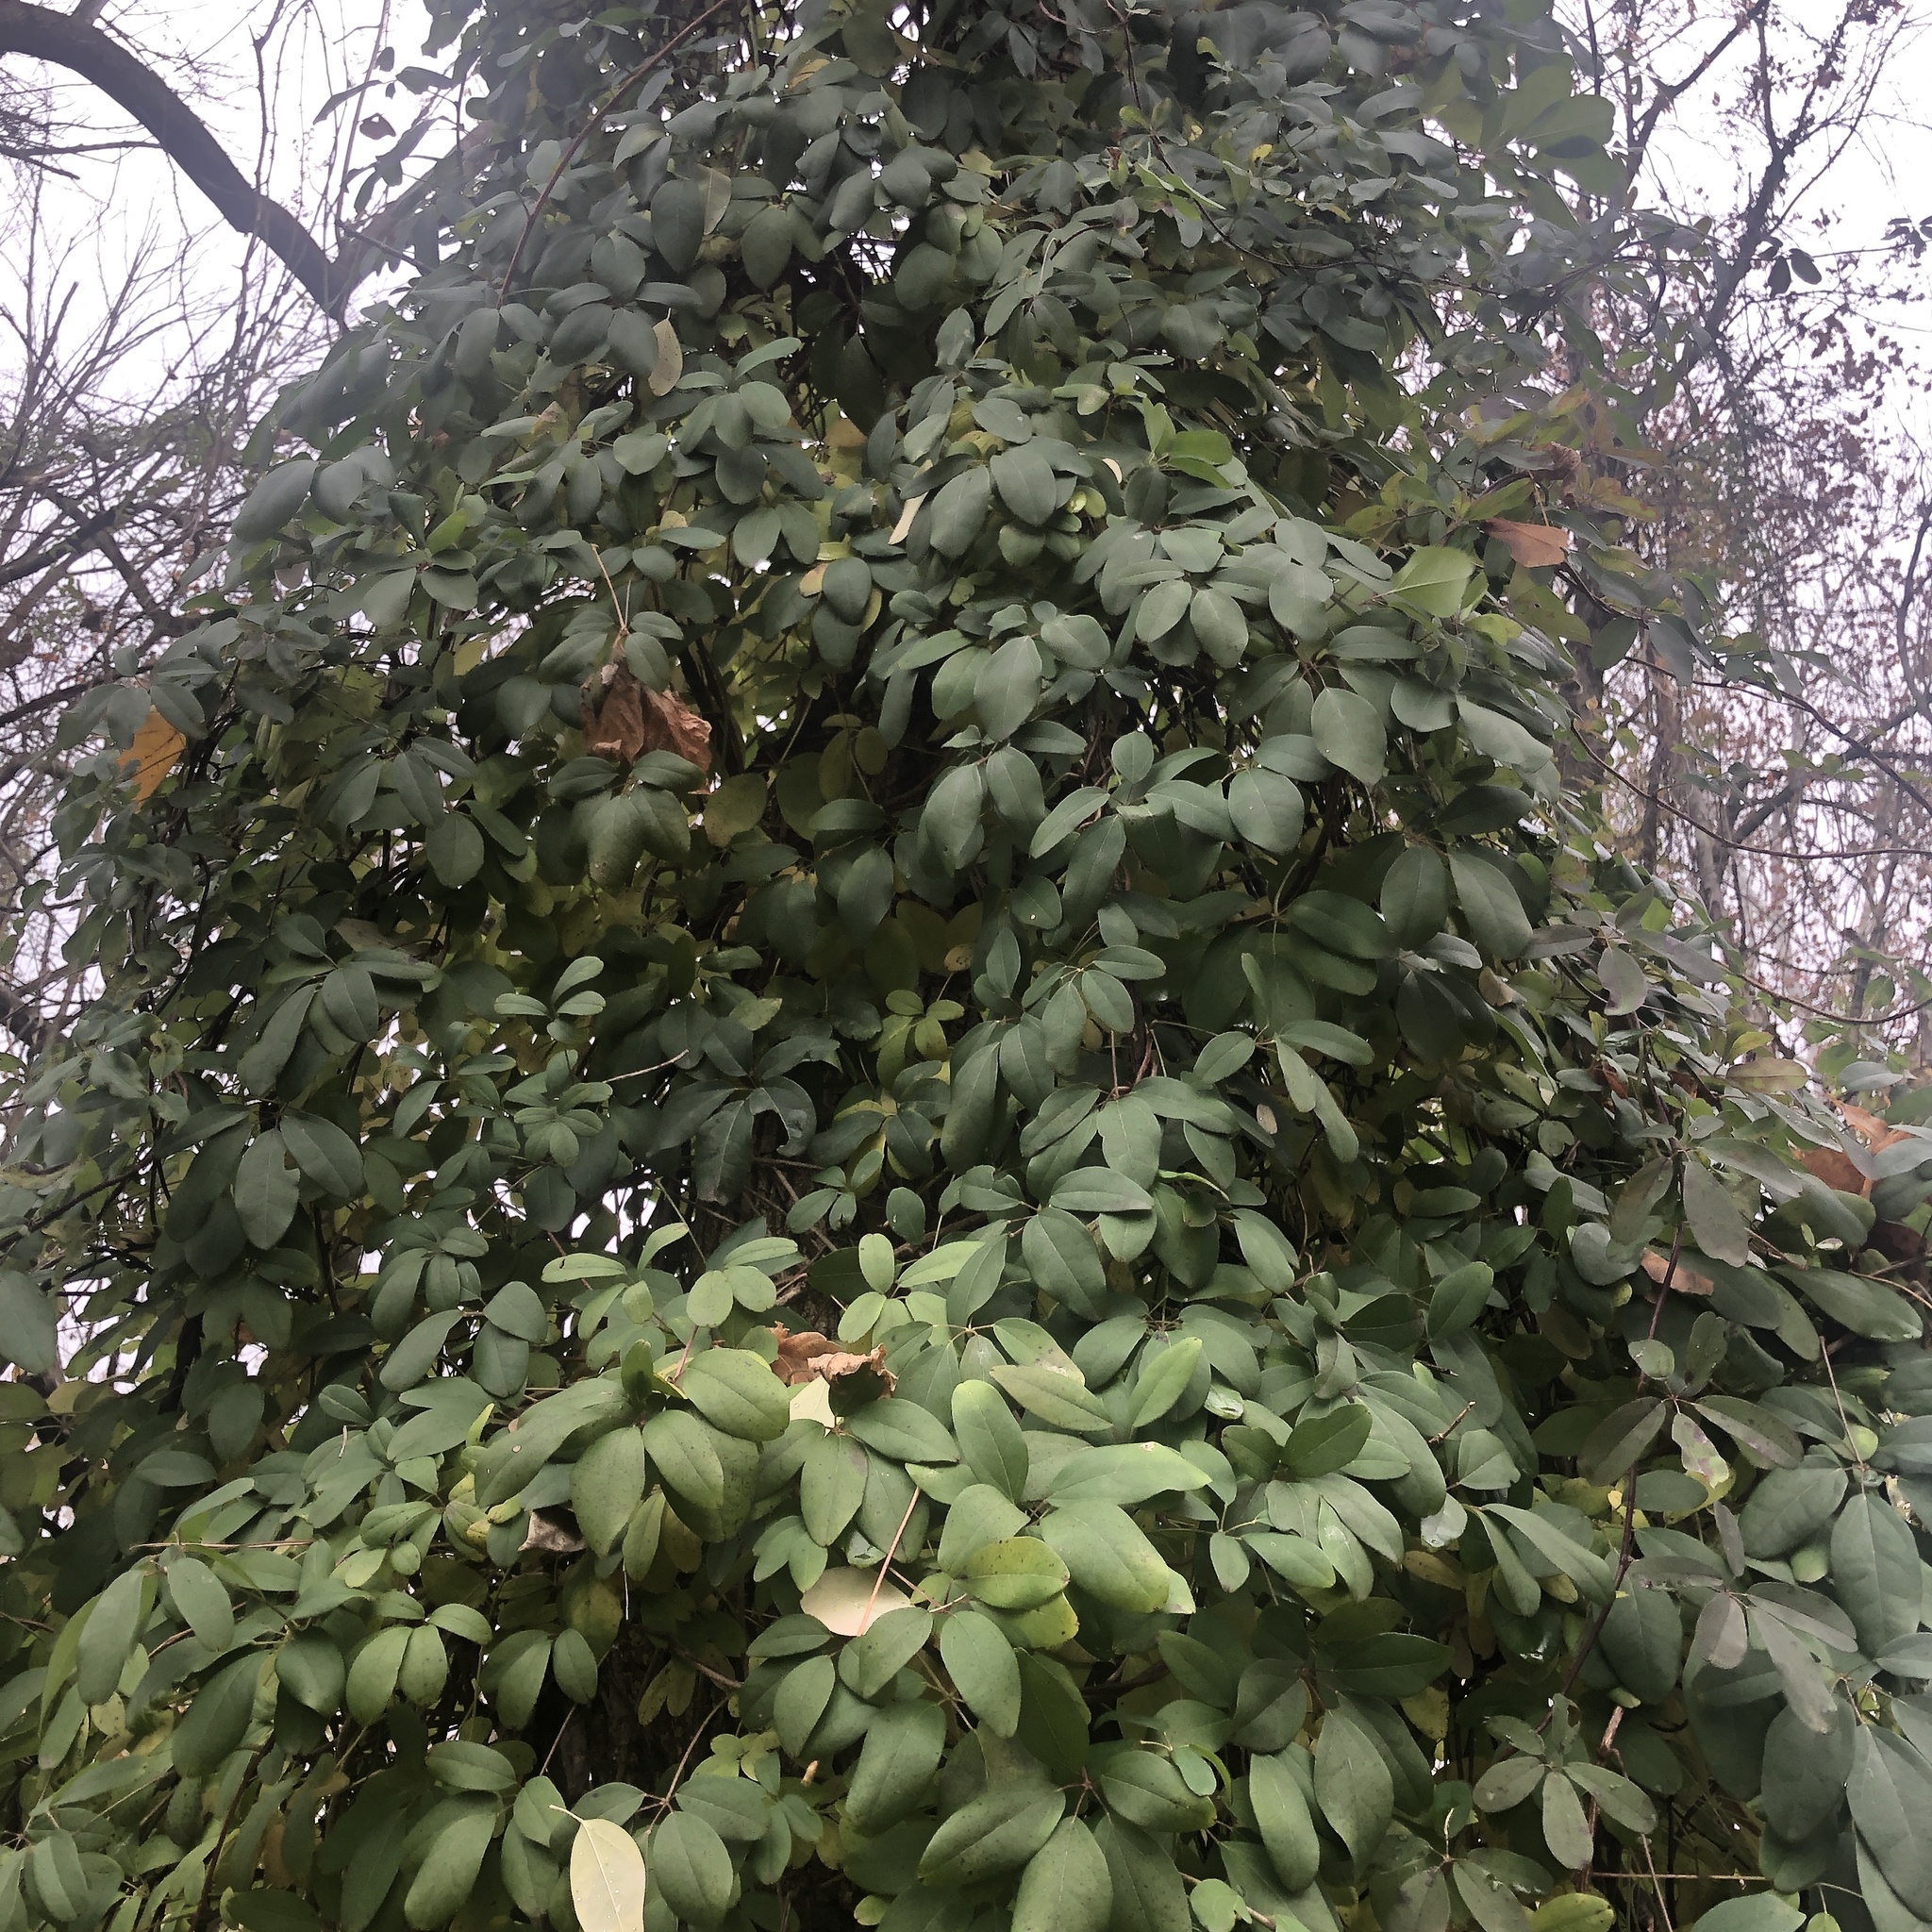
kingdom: Plantae
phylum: Tracheophyta
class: Magnoliopsida
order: Ranunculales
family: Lardizabalaceae
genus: Akebia
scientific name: Akebia quinata
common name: Five-leaf akebia
